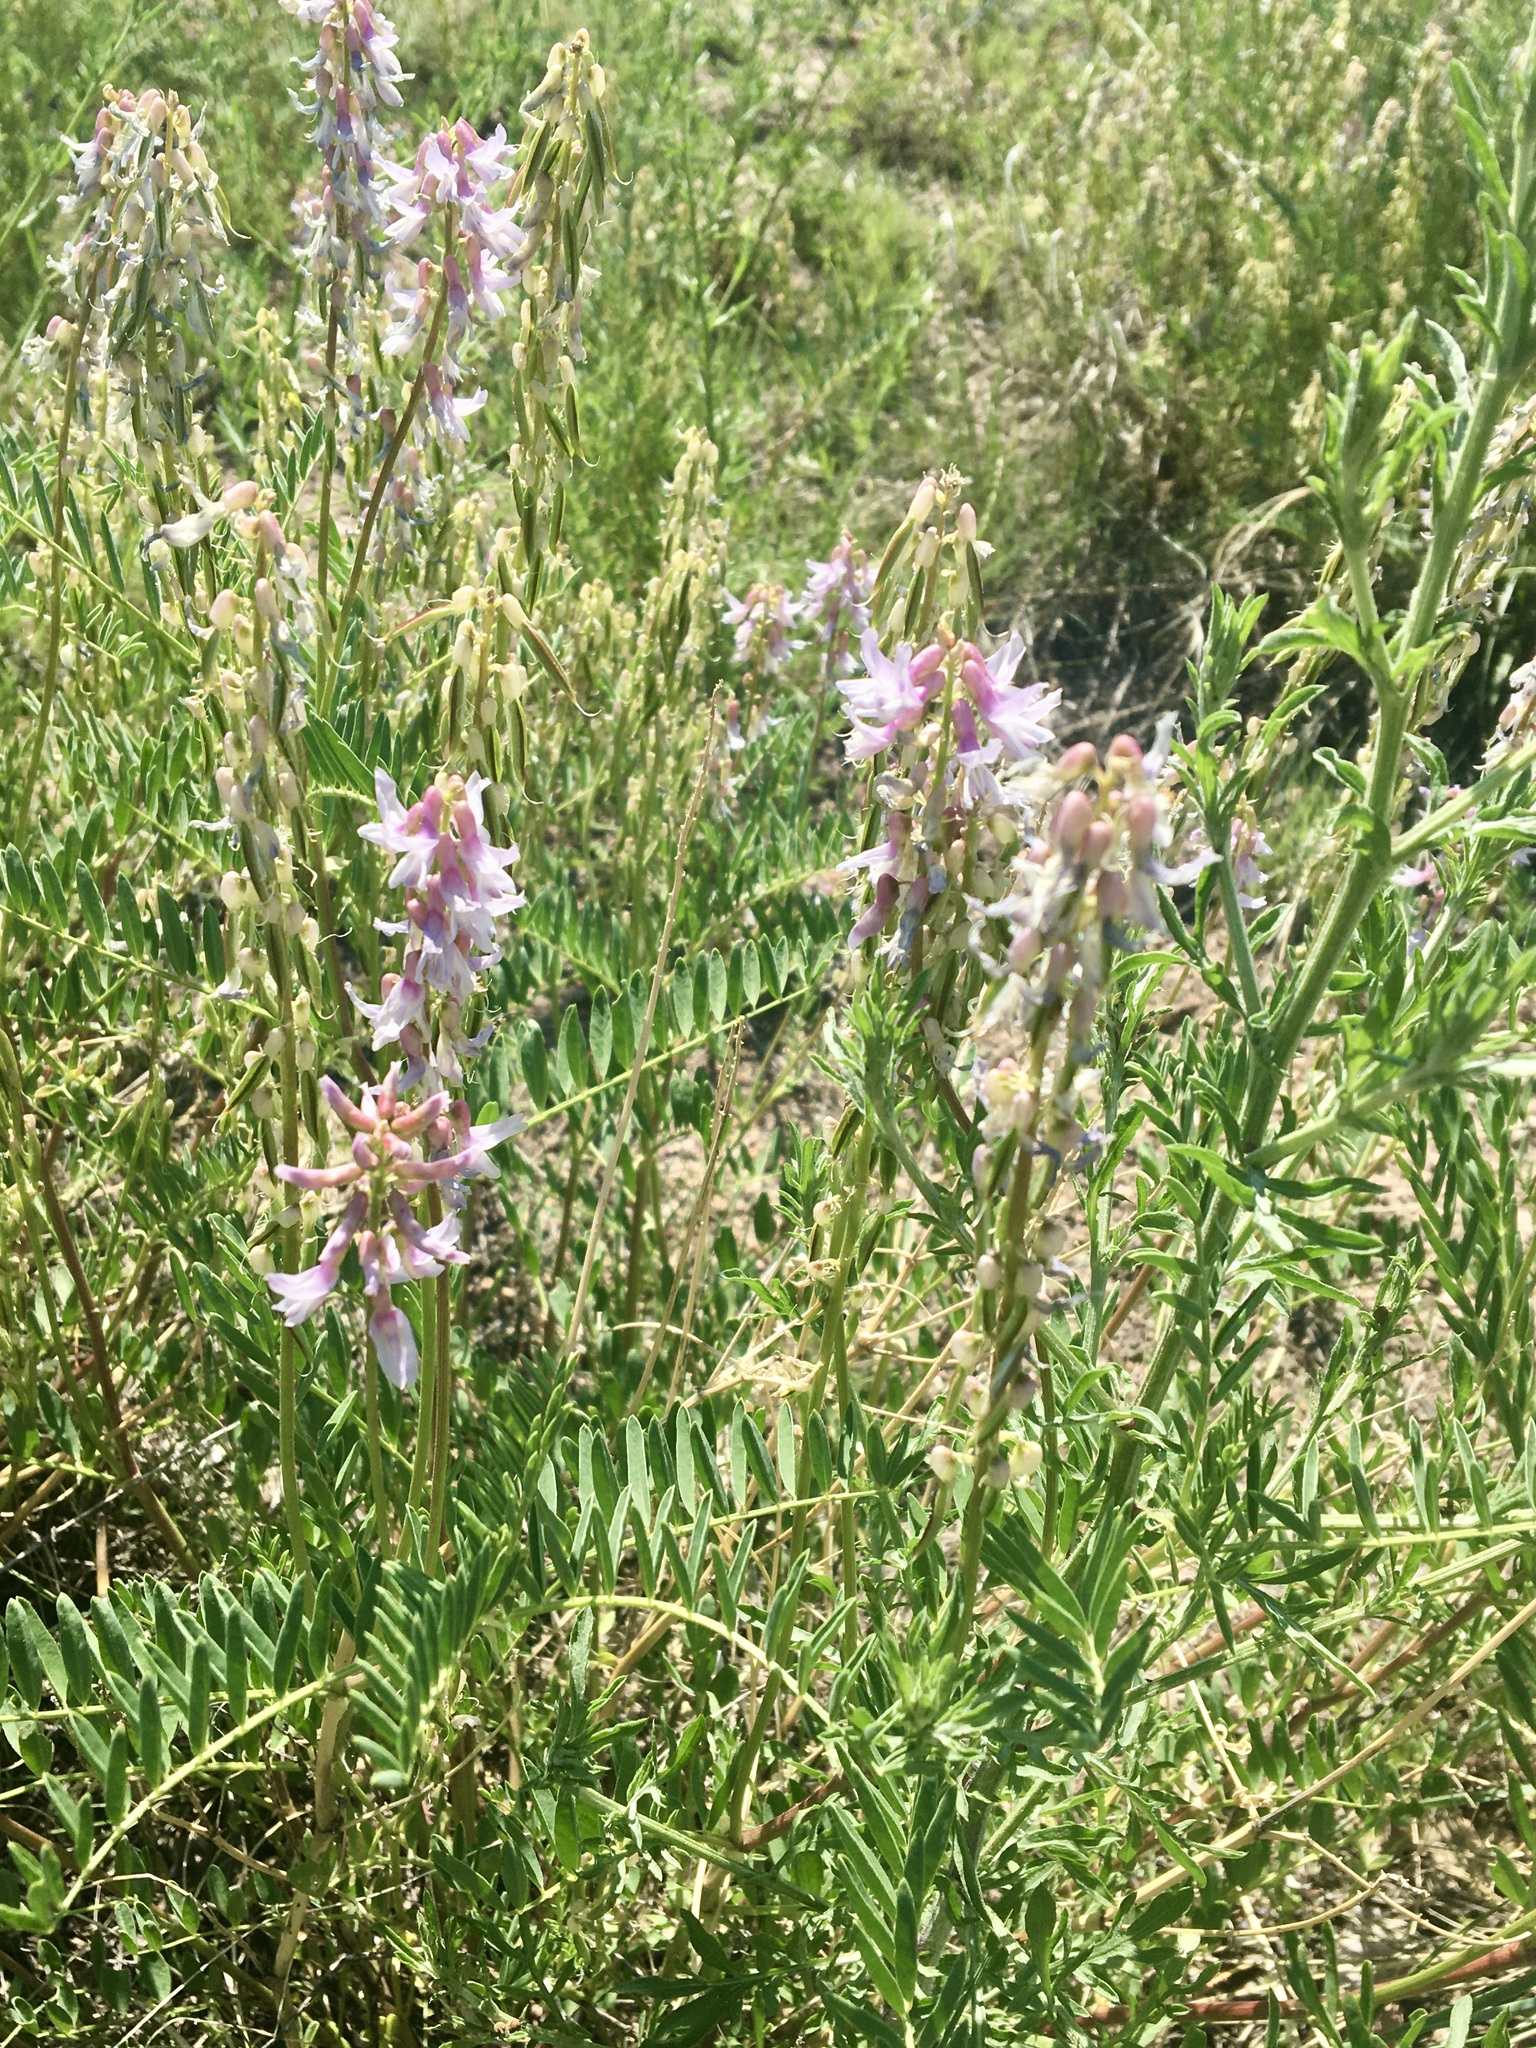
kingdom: Plantae
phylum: Tracheophyta
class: Magnoliopsida
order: Fabales
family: Fabaceae
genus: Astragalus
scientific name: Astragalus bisulcatus
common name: Two-groove milk-vetch
